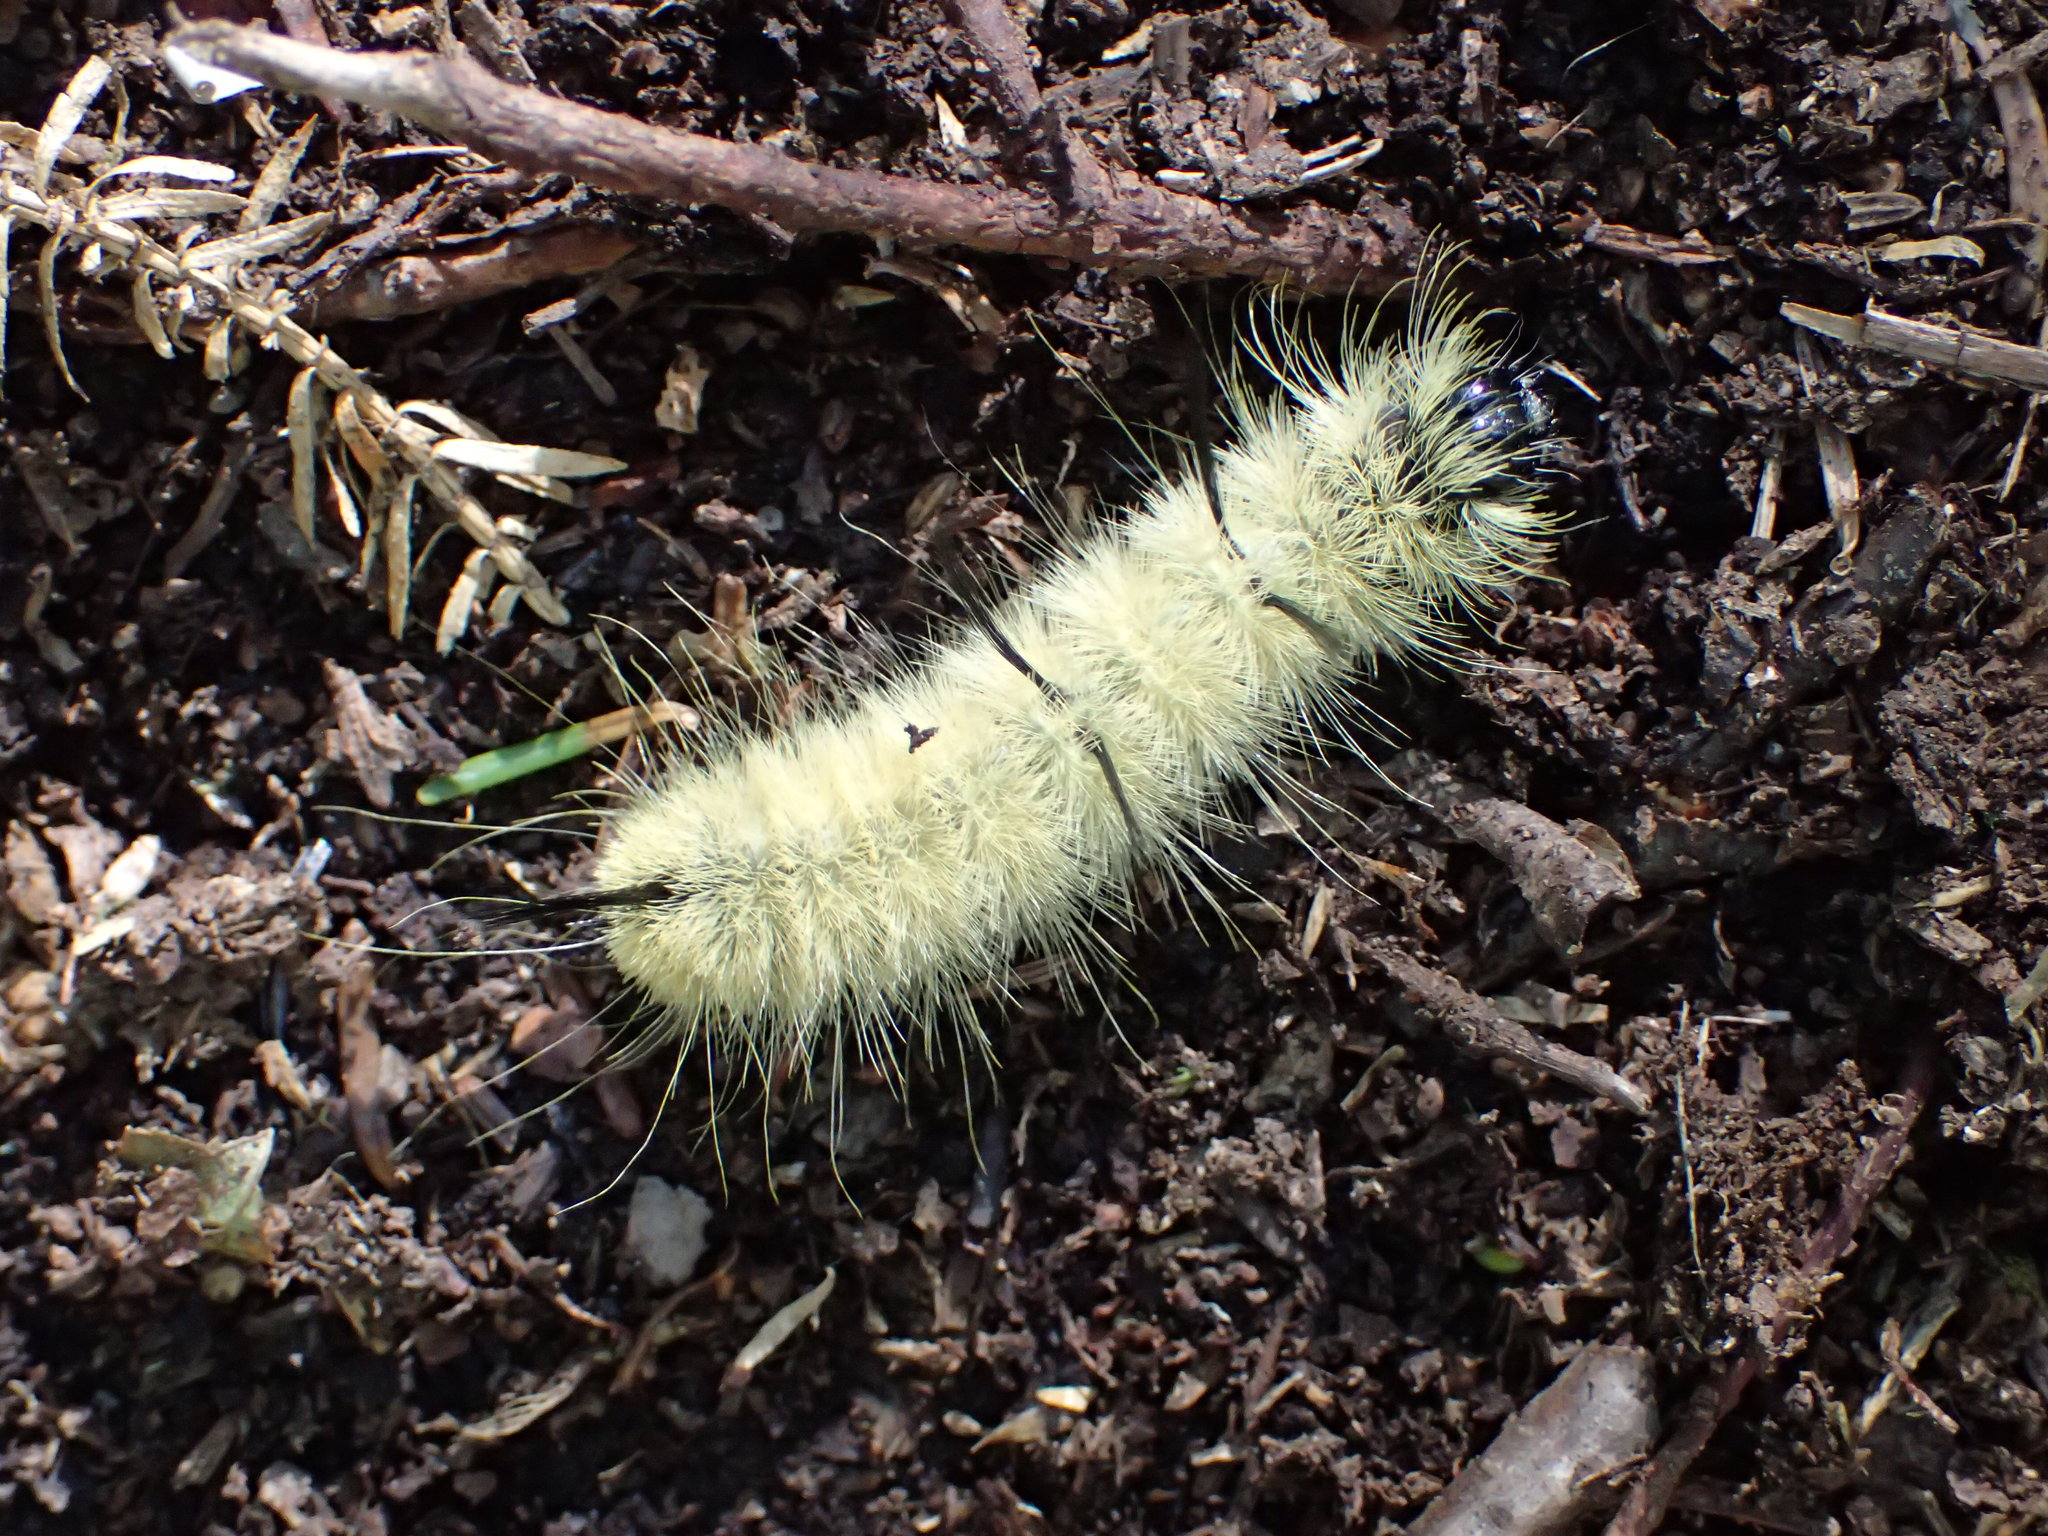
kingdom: Animalia
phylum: Arthropoda
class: Insecta
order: Lepidoptera
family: Noctuidae
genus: Acronicta
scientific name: Acronicta americana
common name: American dagger
